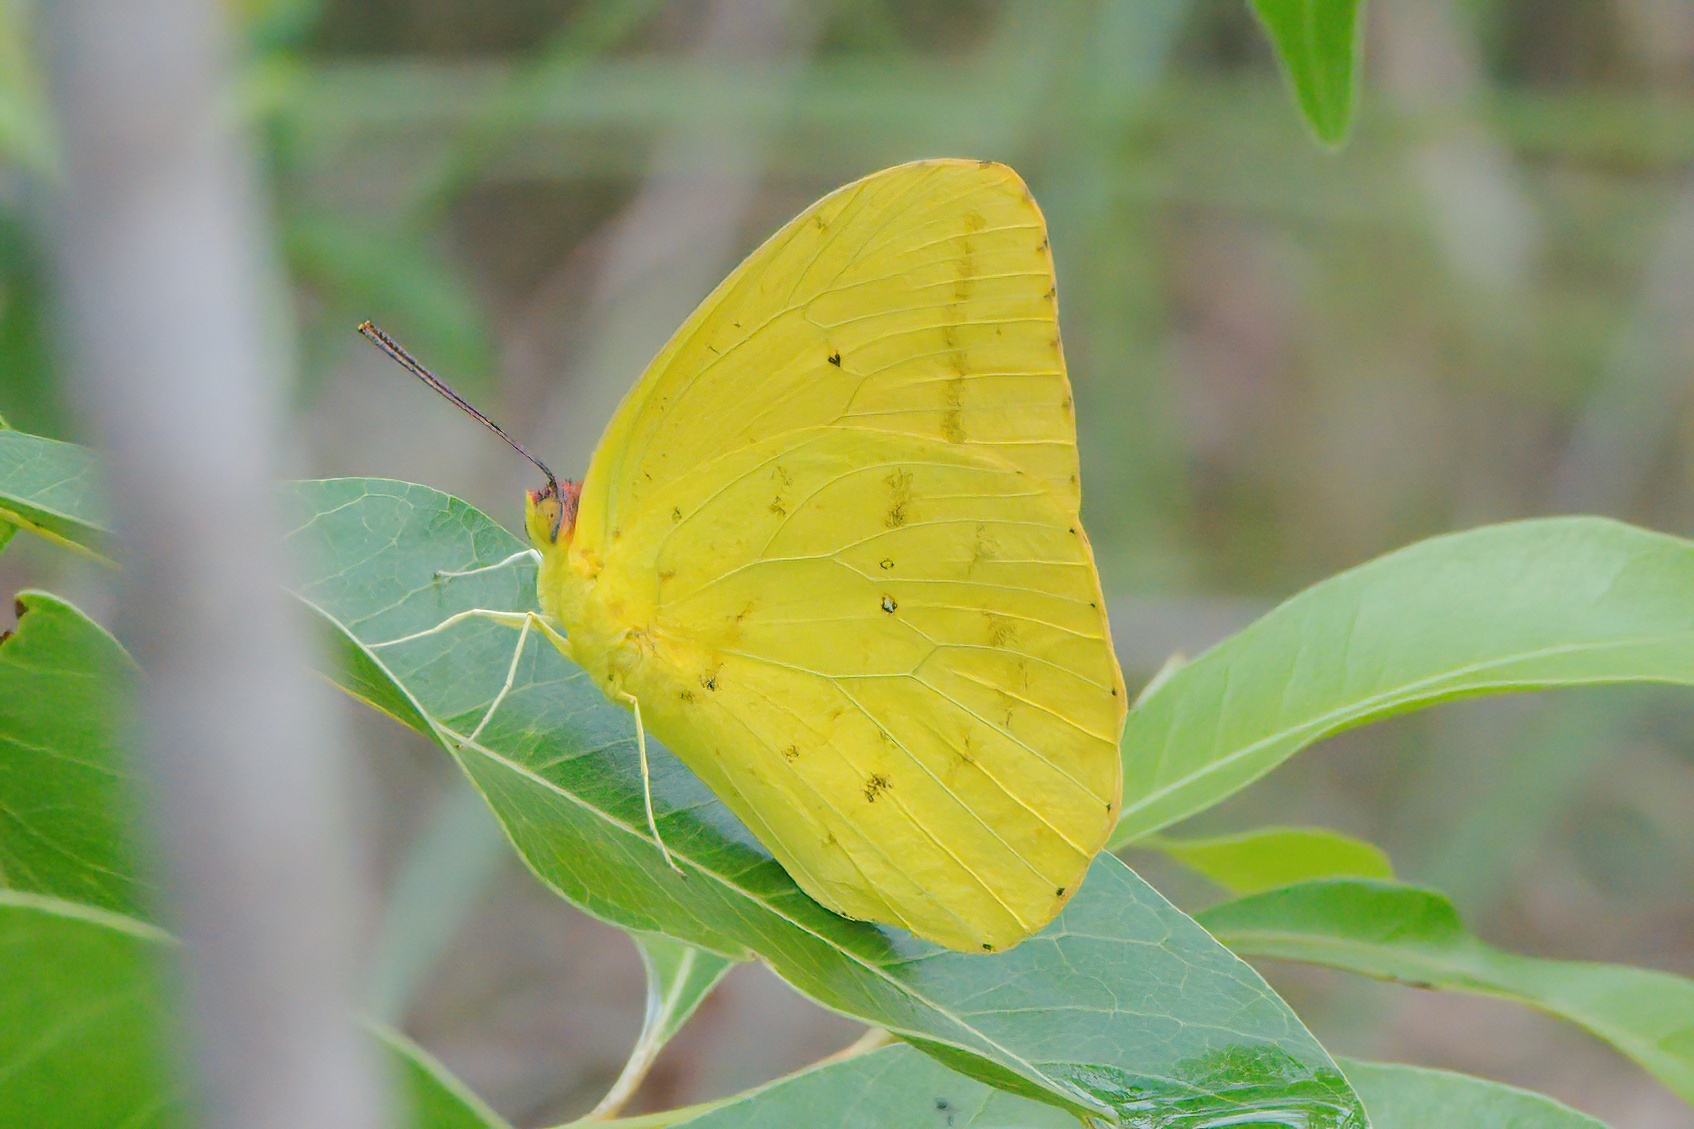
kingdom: Animalia
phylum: Arthropoda
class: Insecta
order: Lepidoptera
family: Pieridae
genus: Phoebis
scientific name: Phoebis agarithe
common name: Large orange sulphur
